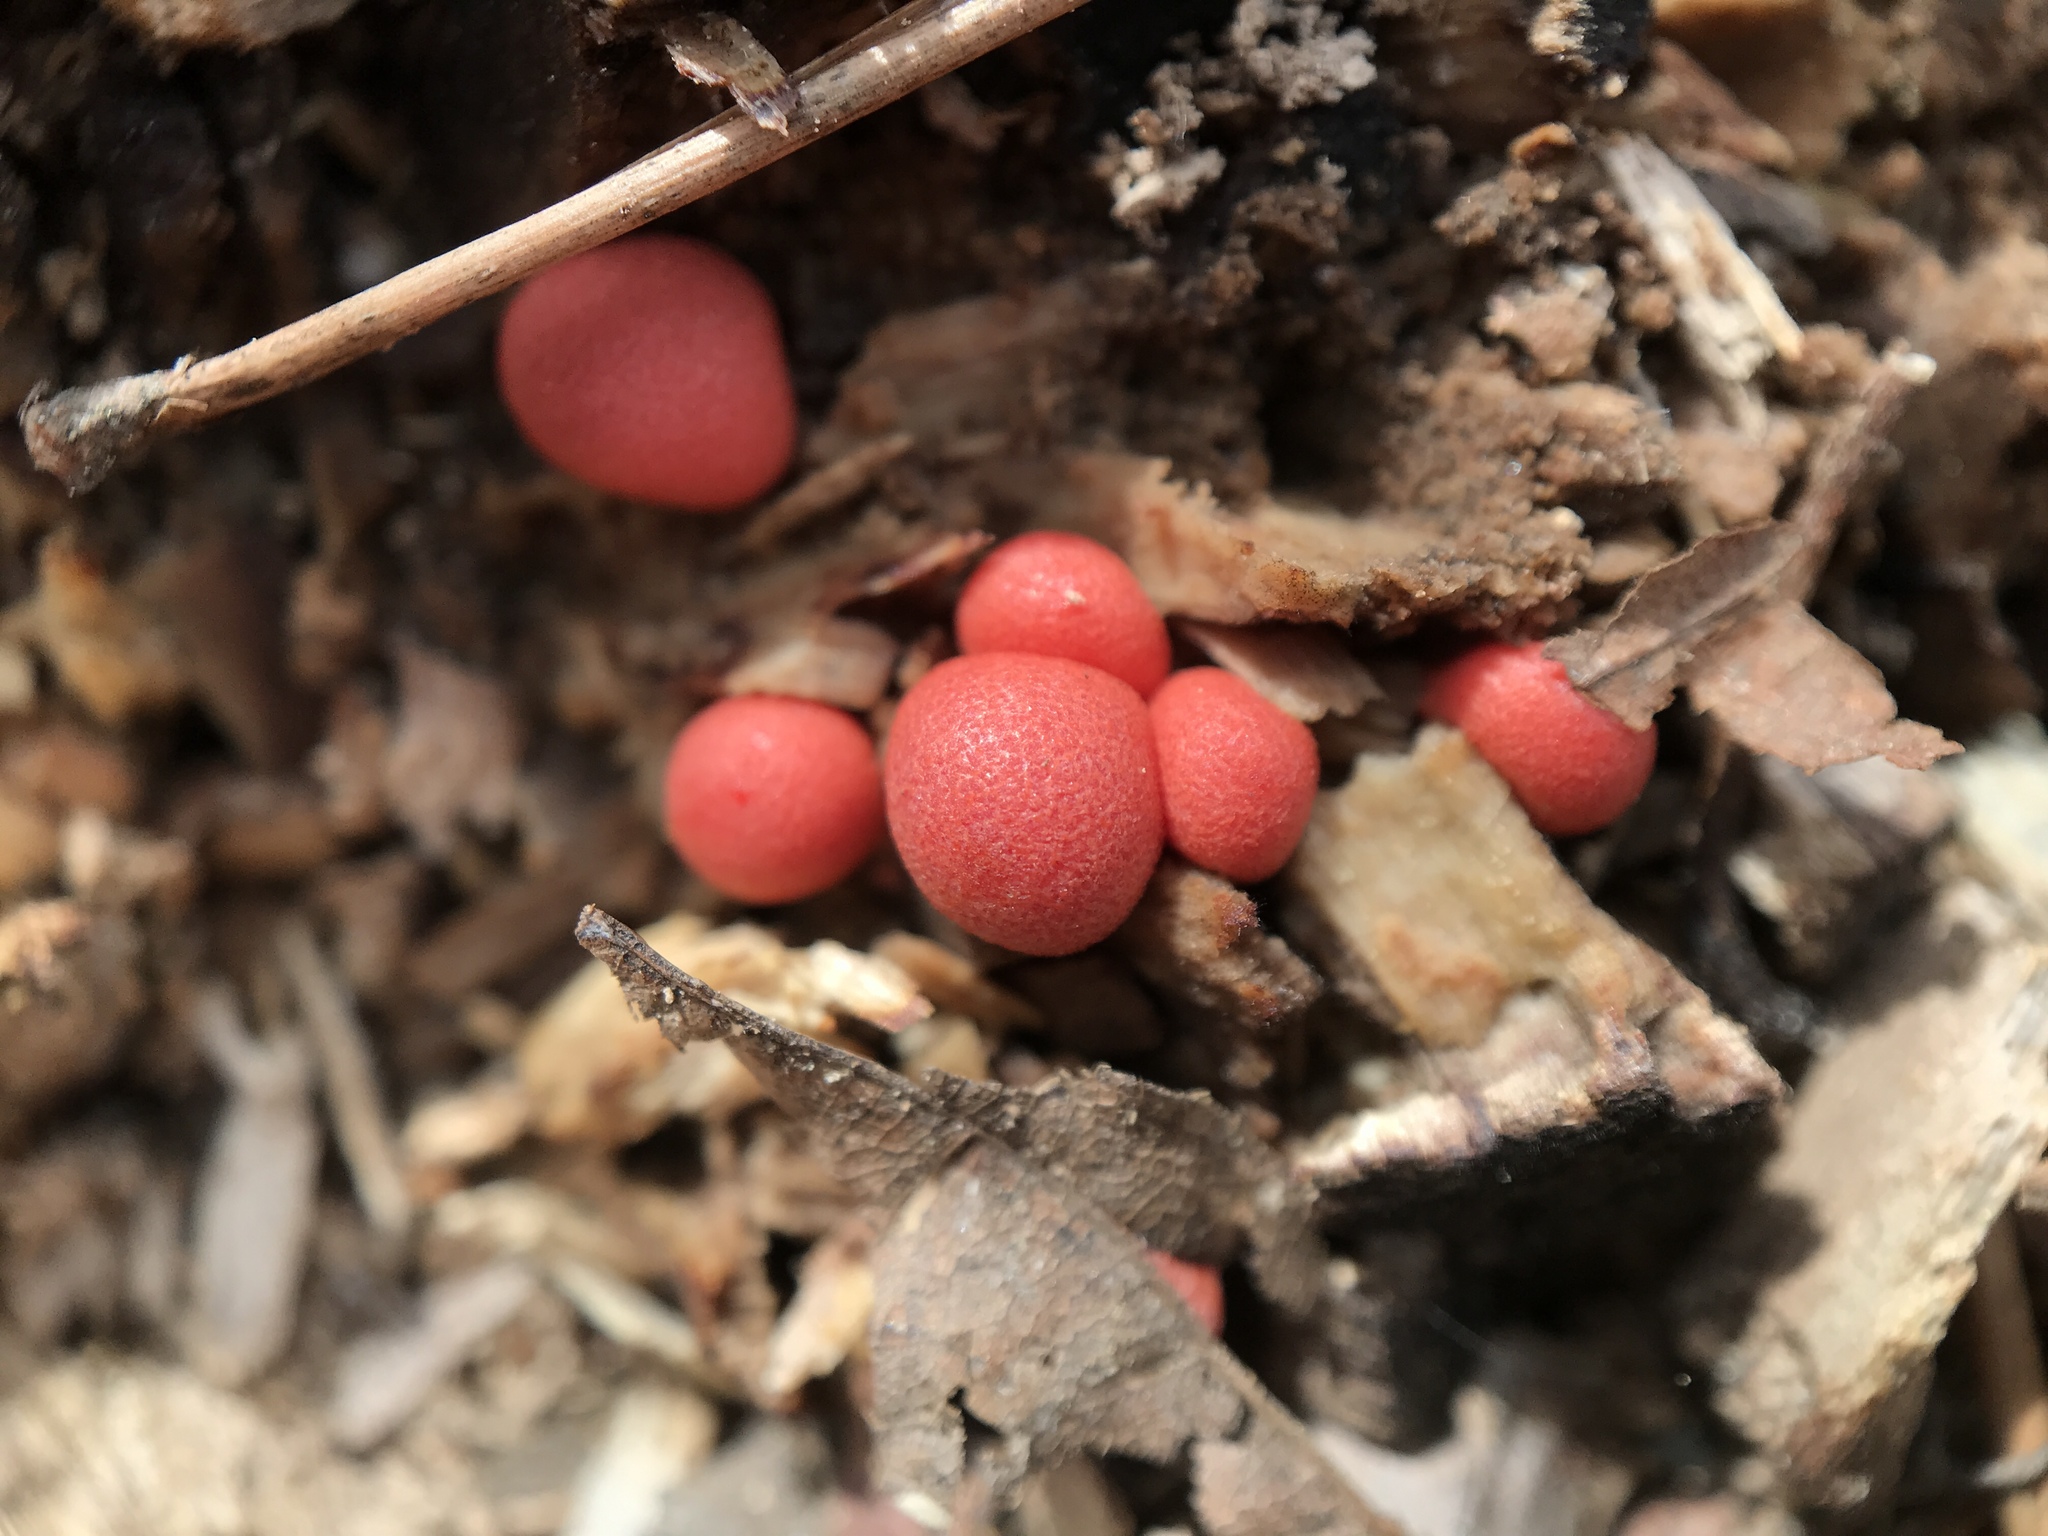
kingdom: Protozoa
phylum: Mycetozoa
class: Myxomycetes
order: Cribrariales
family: Tubiferaceae
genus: Lycogala
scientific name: Lycogala epidendrum
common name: Wolf's milk
